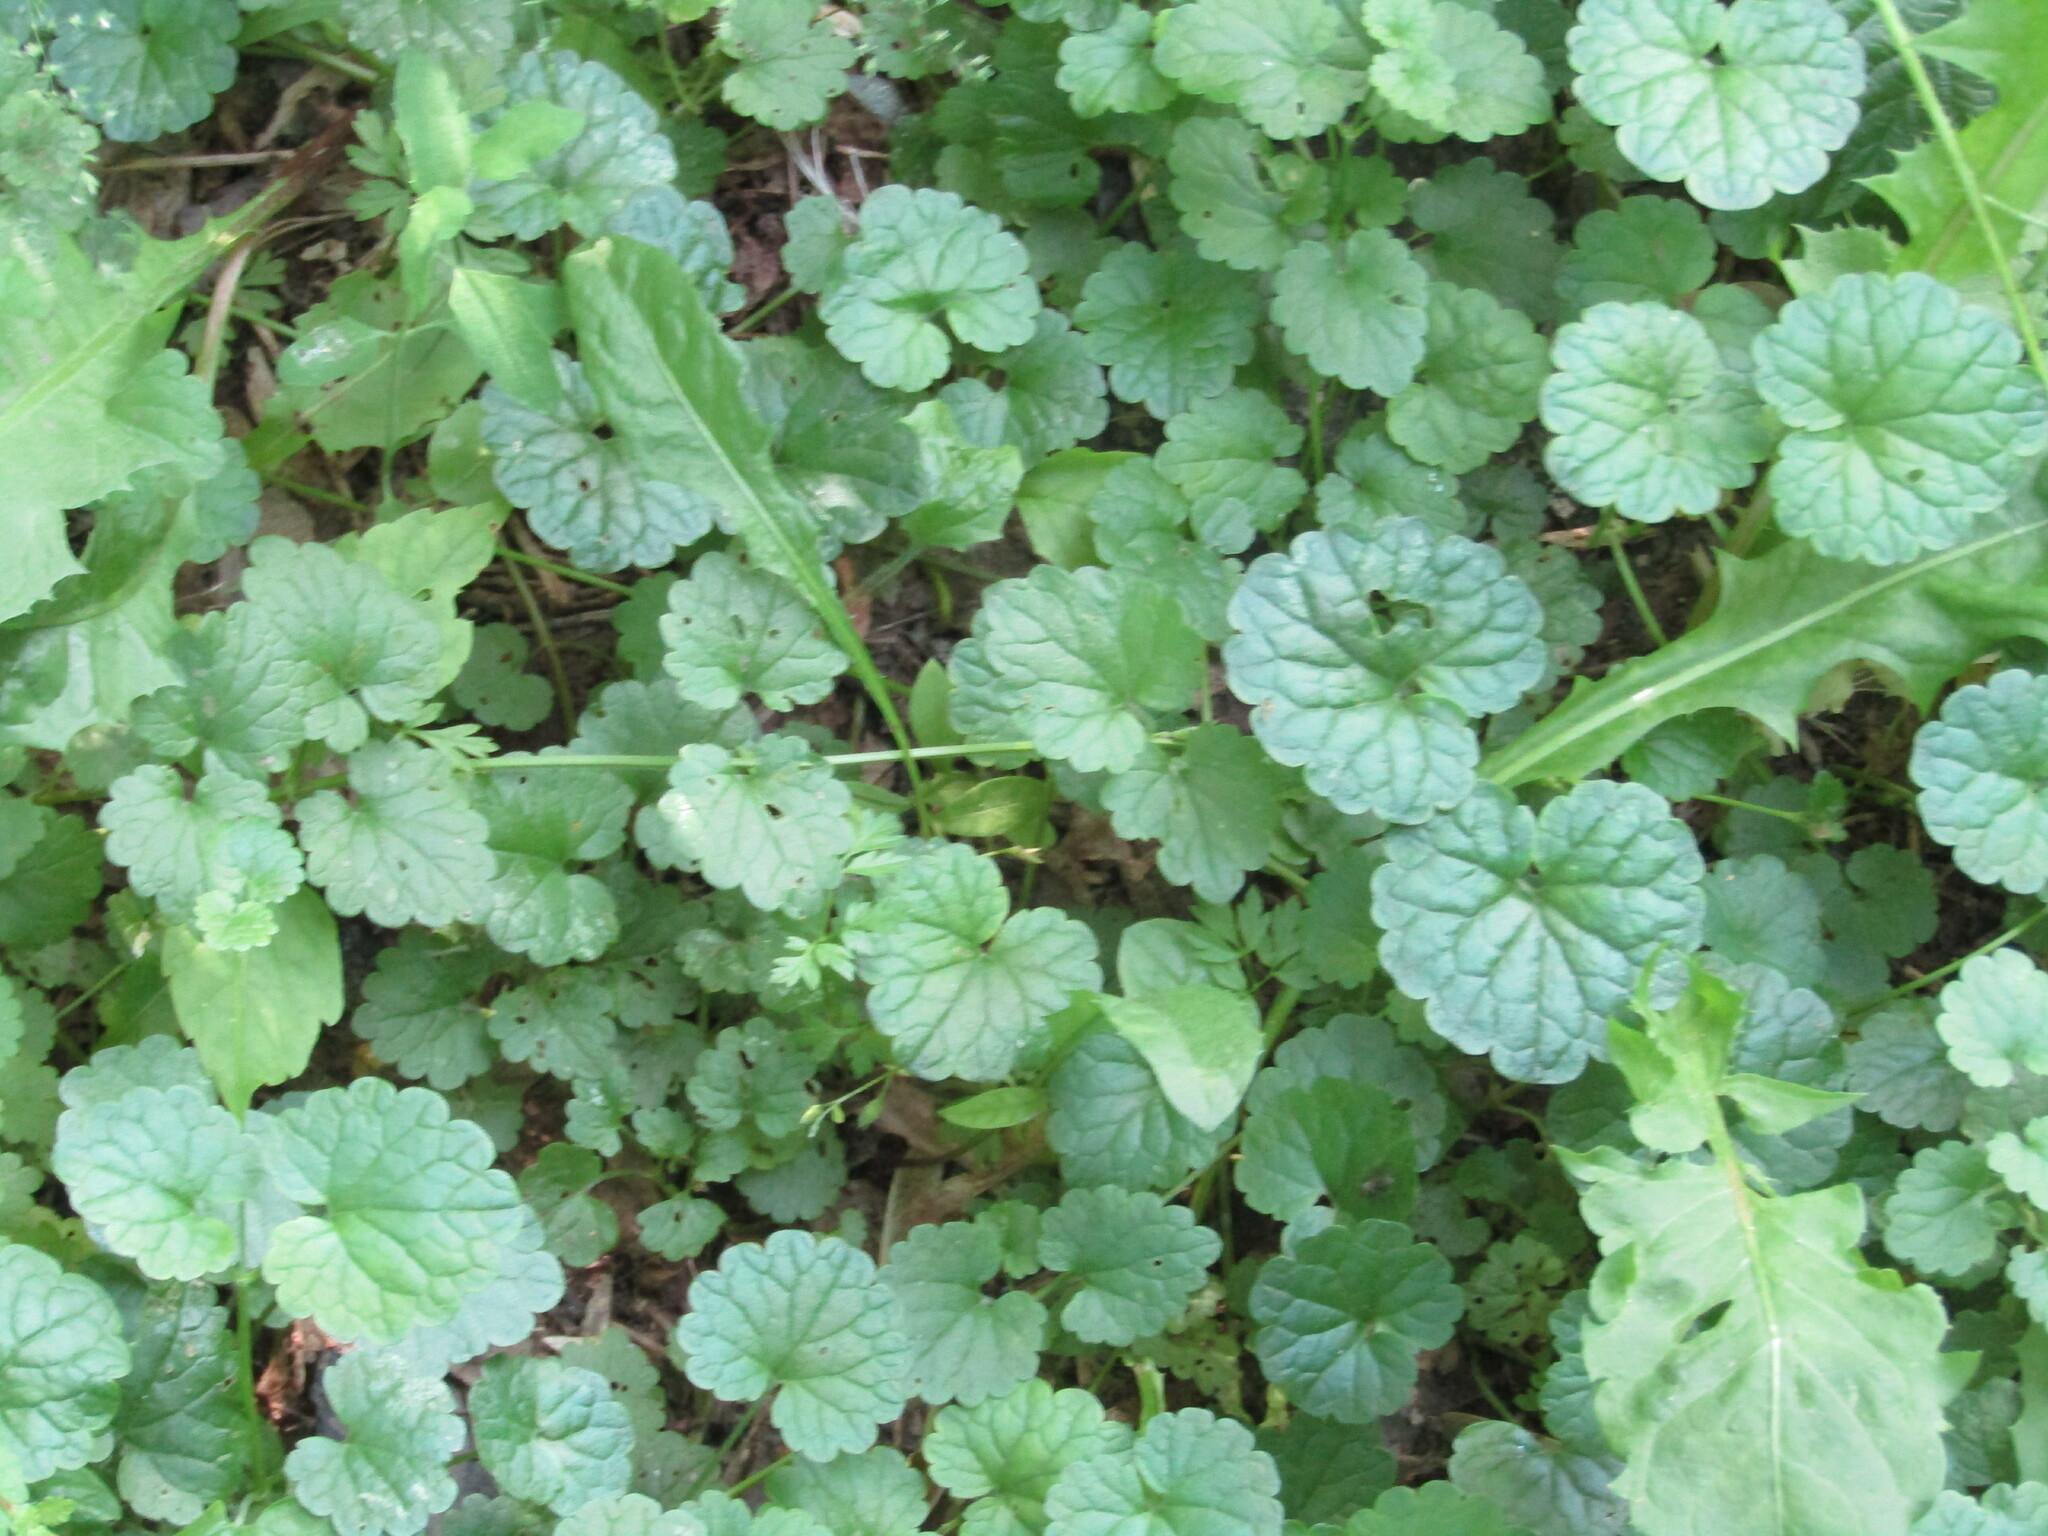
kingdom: Plantae
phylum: Tracheophyta
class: Magnoliopsida
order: Lamiales
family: Lamiaceae
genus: Glechoma
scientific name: Glechoma hederacea
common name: Ground ivy
